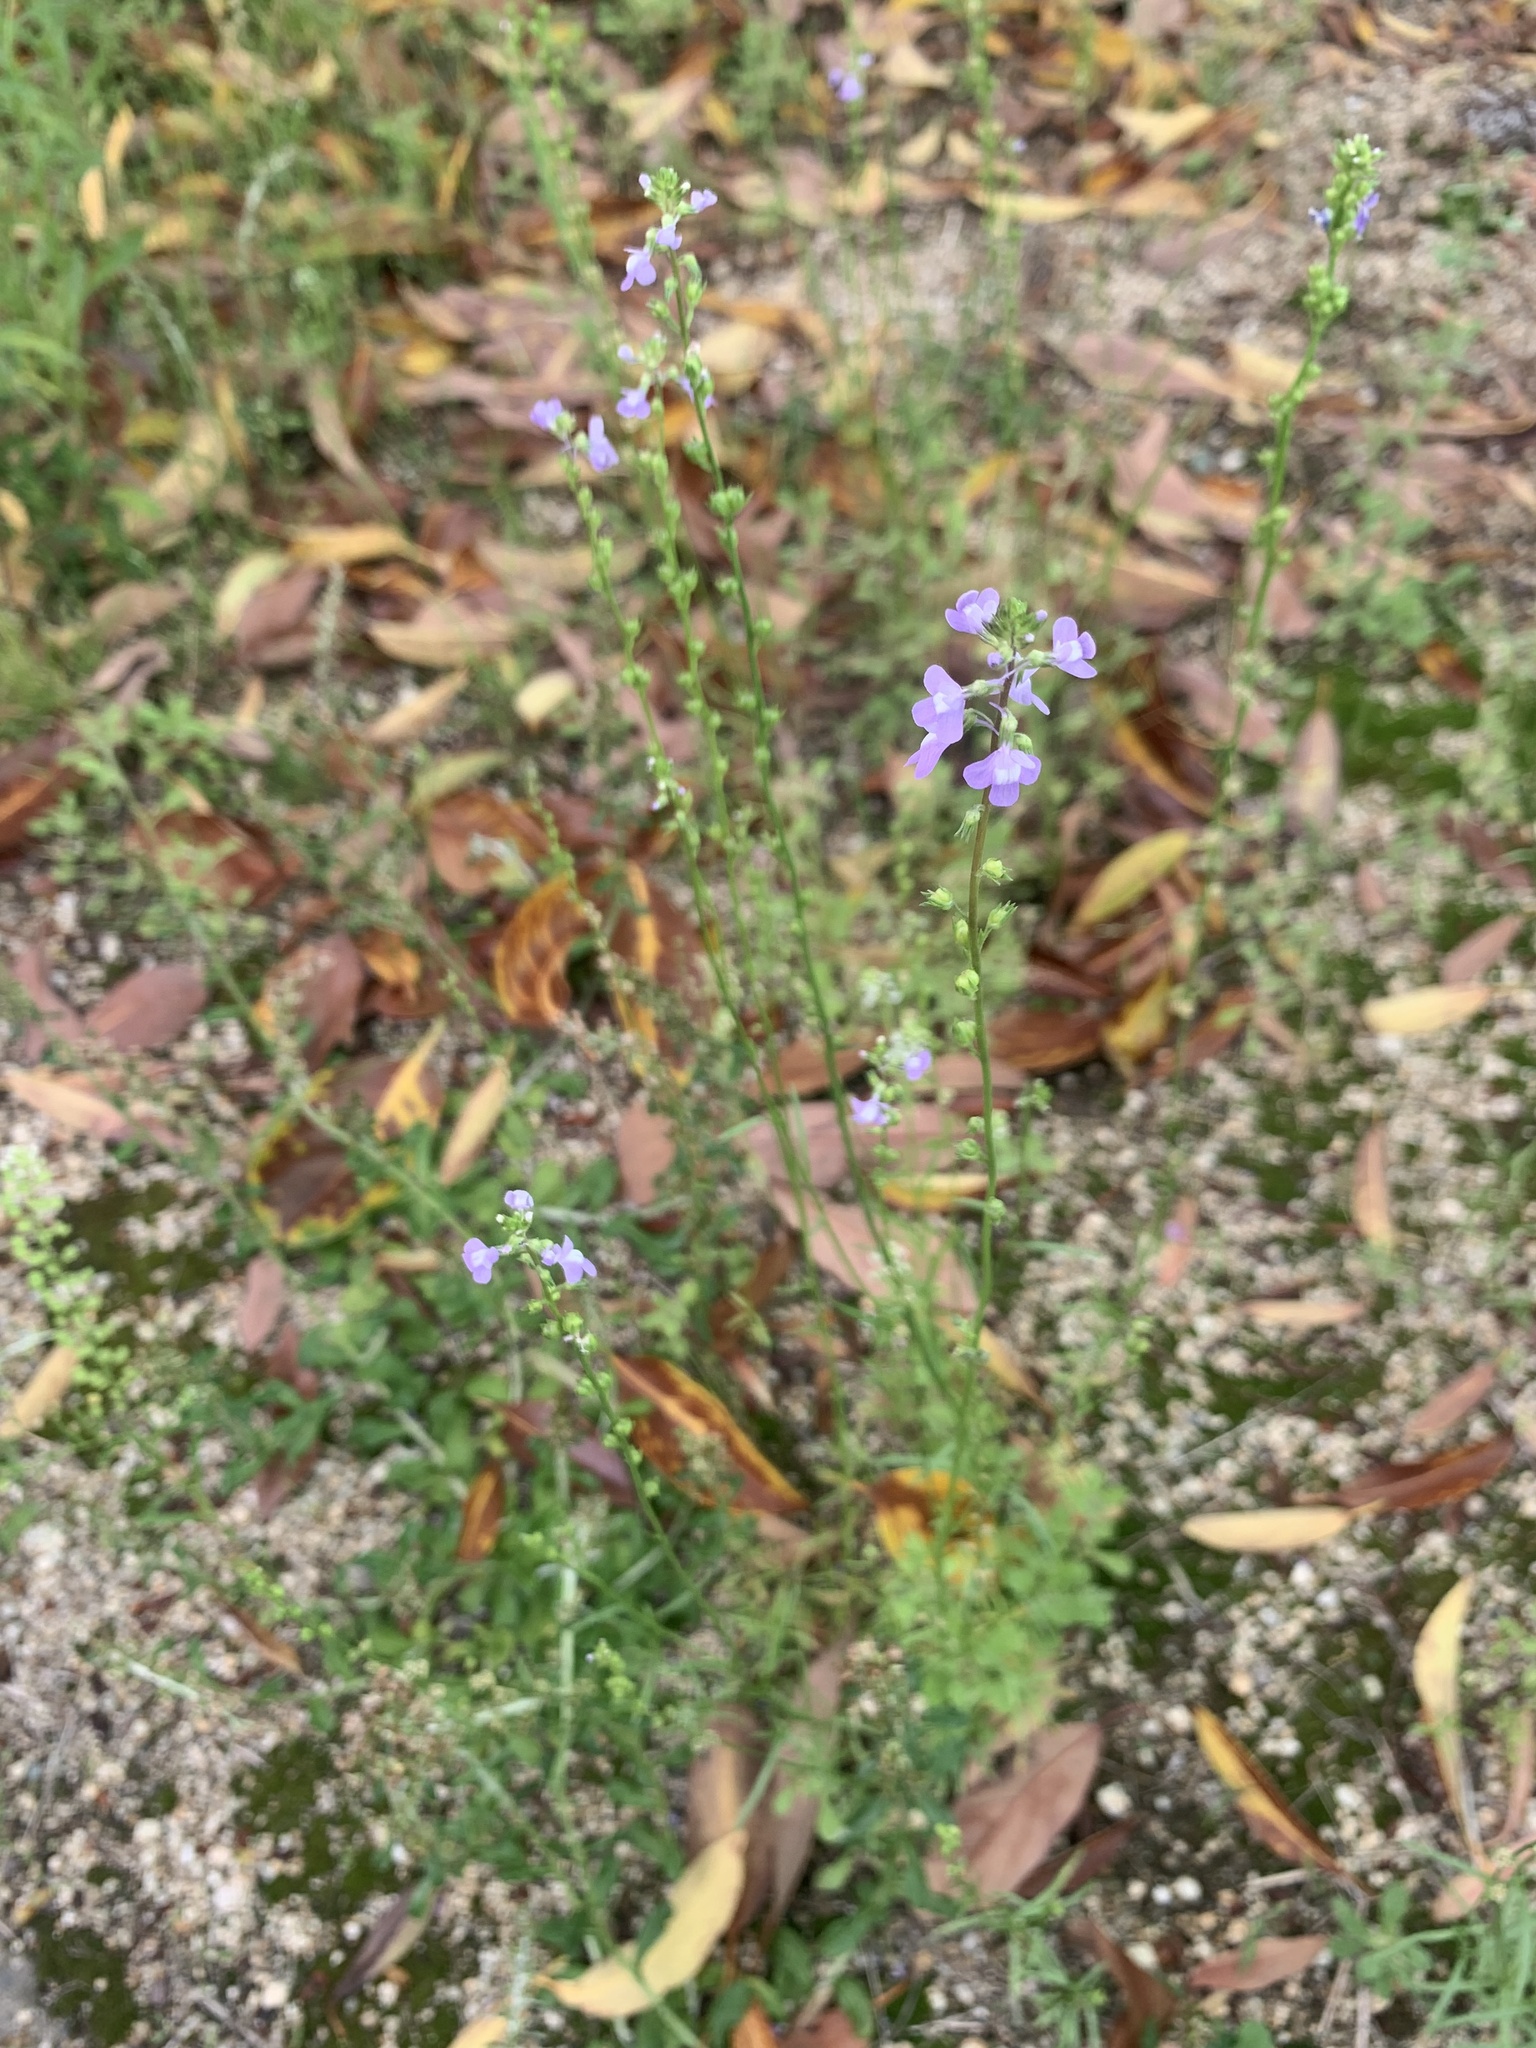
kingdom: Plantae
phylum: Tracheophyta
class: Magnoliopsida
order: Lamiales
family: Plantaginaceae
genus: Nuttallanthus
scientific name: Nuttallanthus canadensis
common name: Blue toadflax
